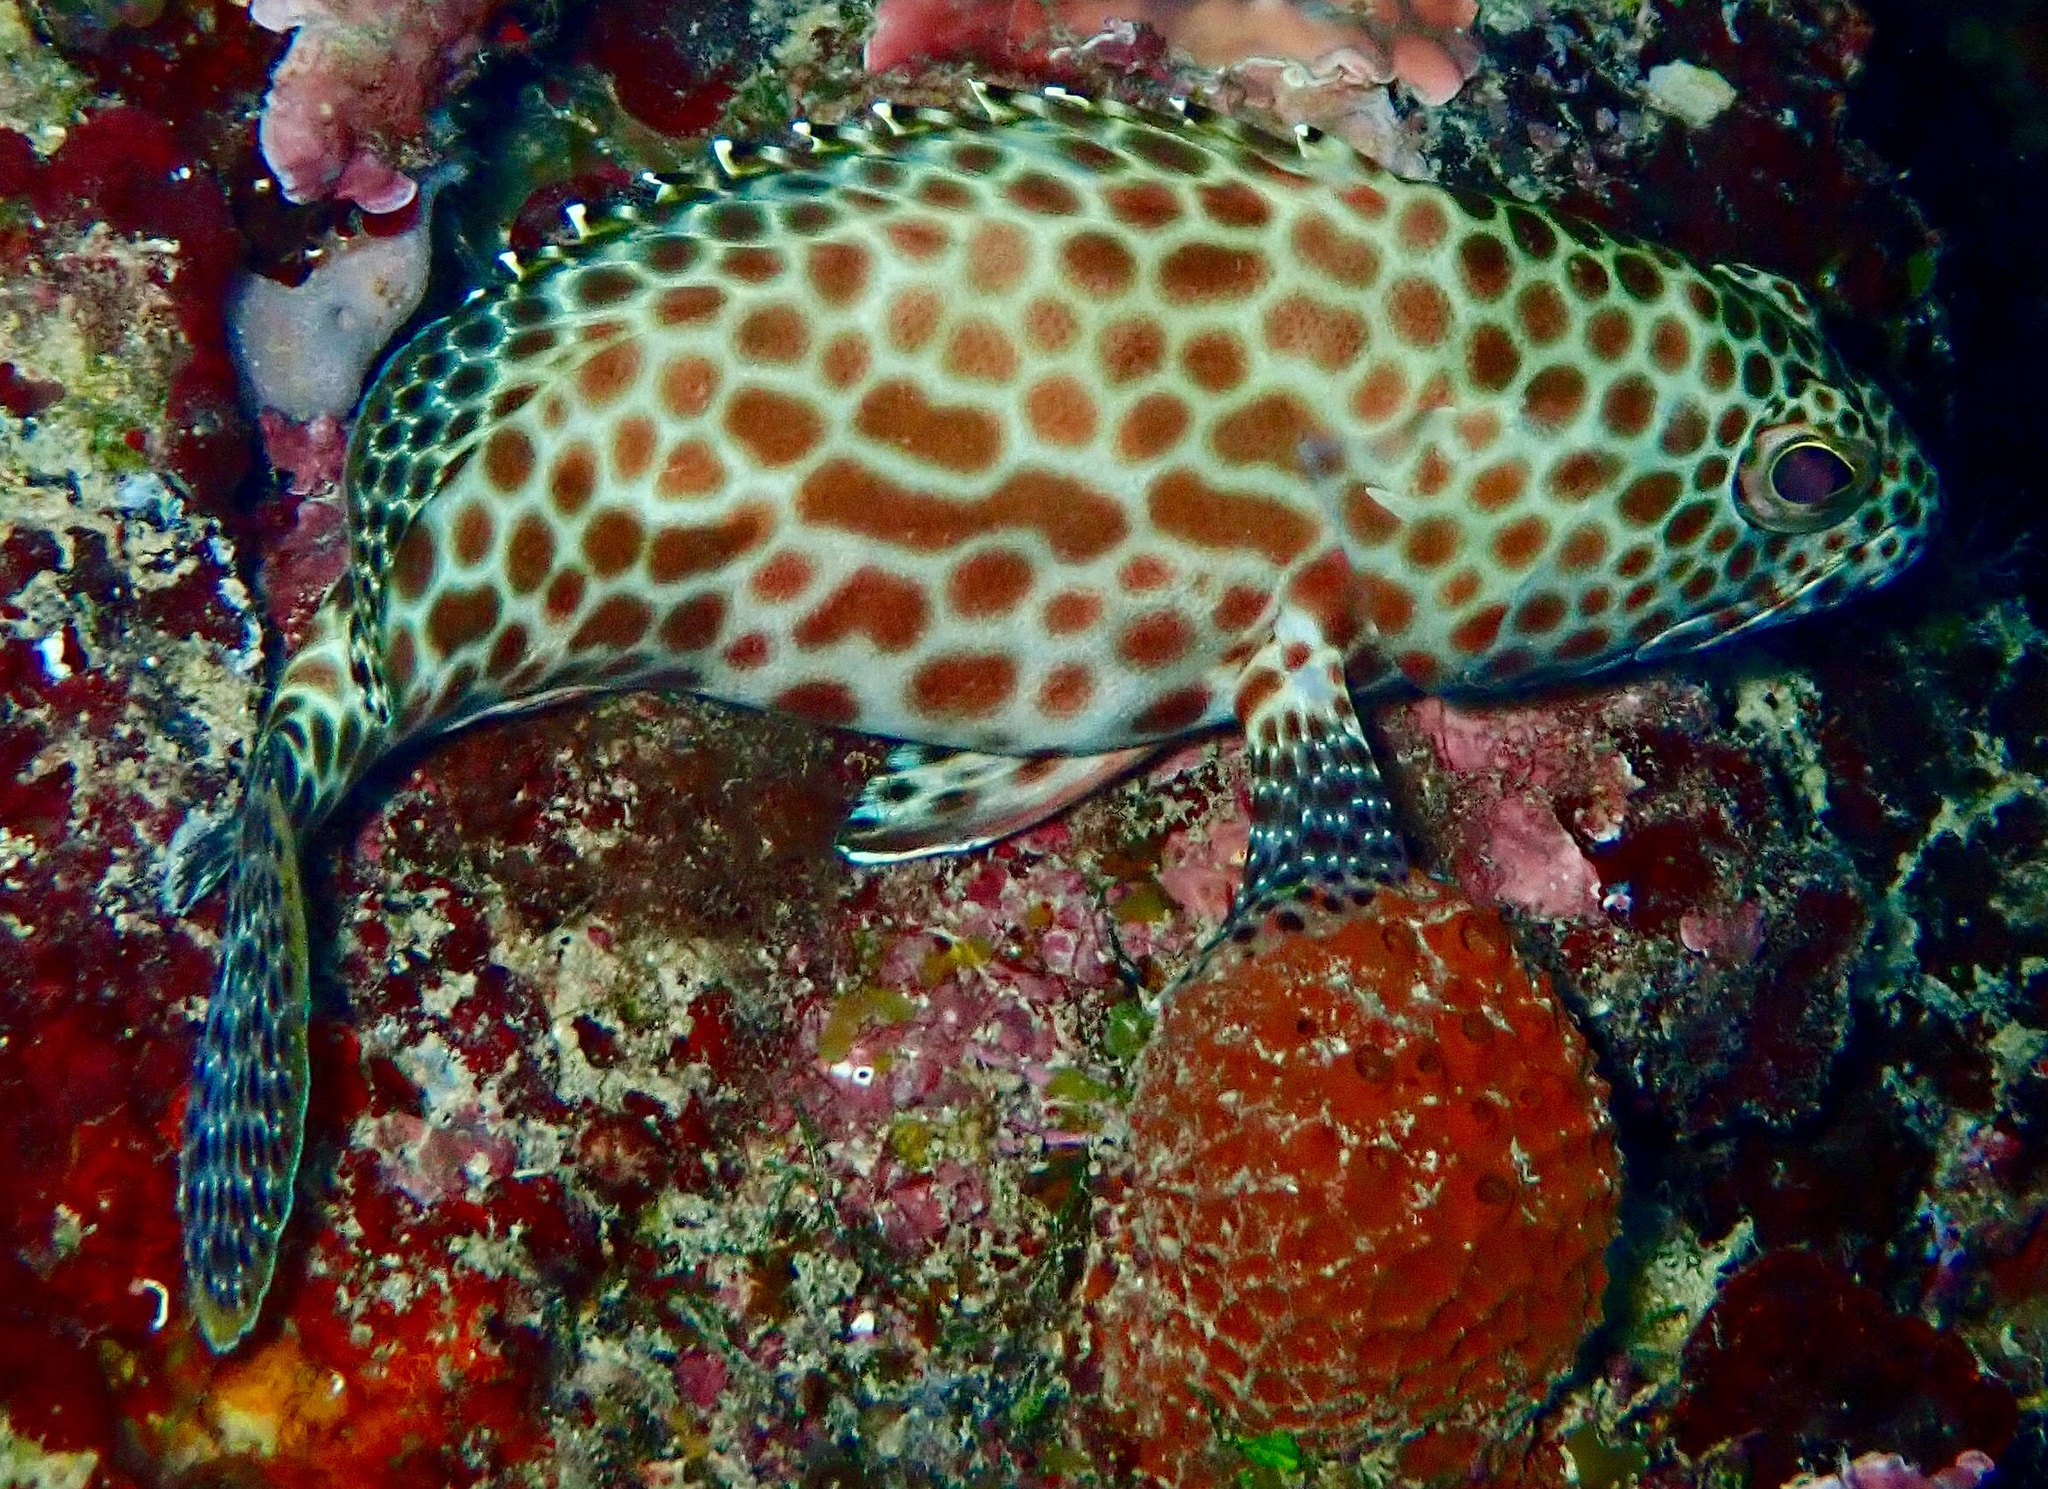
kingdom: Animalia
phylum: Chordata
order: Perciformes
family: Serranidae
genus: Epinephelus
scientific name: Epinephelus merra
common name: Honeycomb grouper
